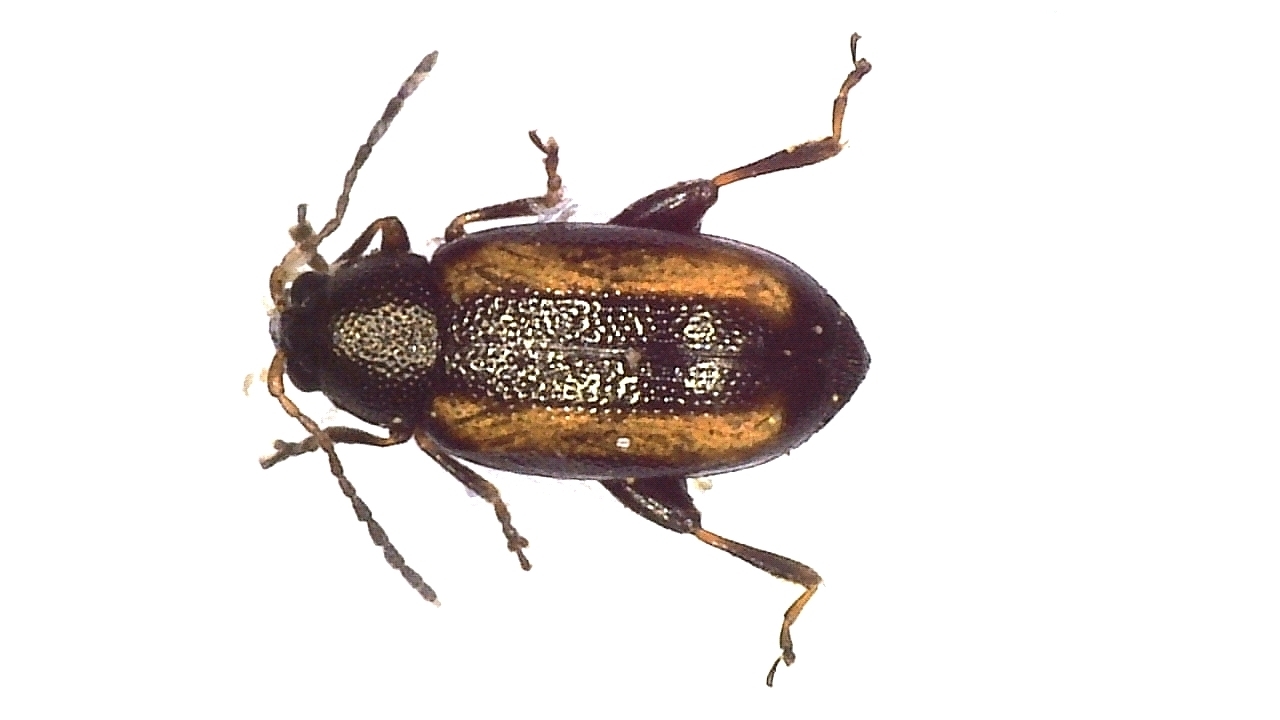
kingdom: Animalia
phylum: Arthropoda
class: Insecta
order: Coleoptera
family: Chrysomelidae
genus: Phyllotreta
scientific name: Phyllotreta nemorum
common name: Large striped flea beetle
